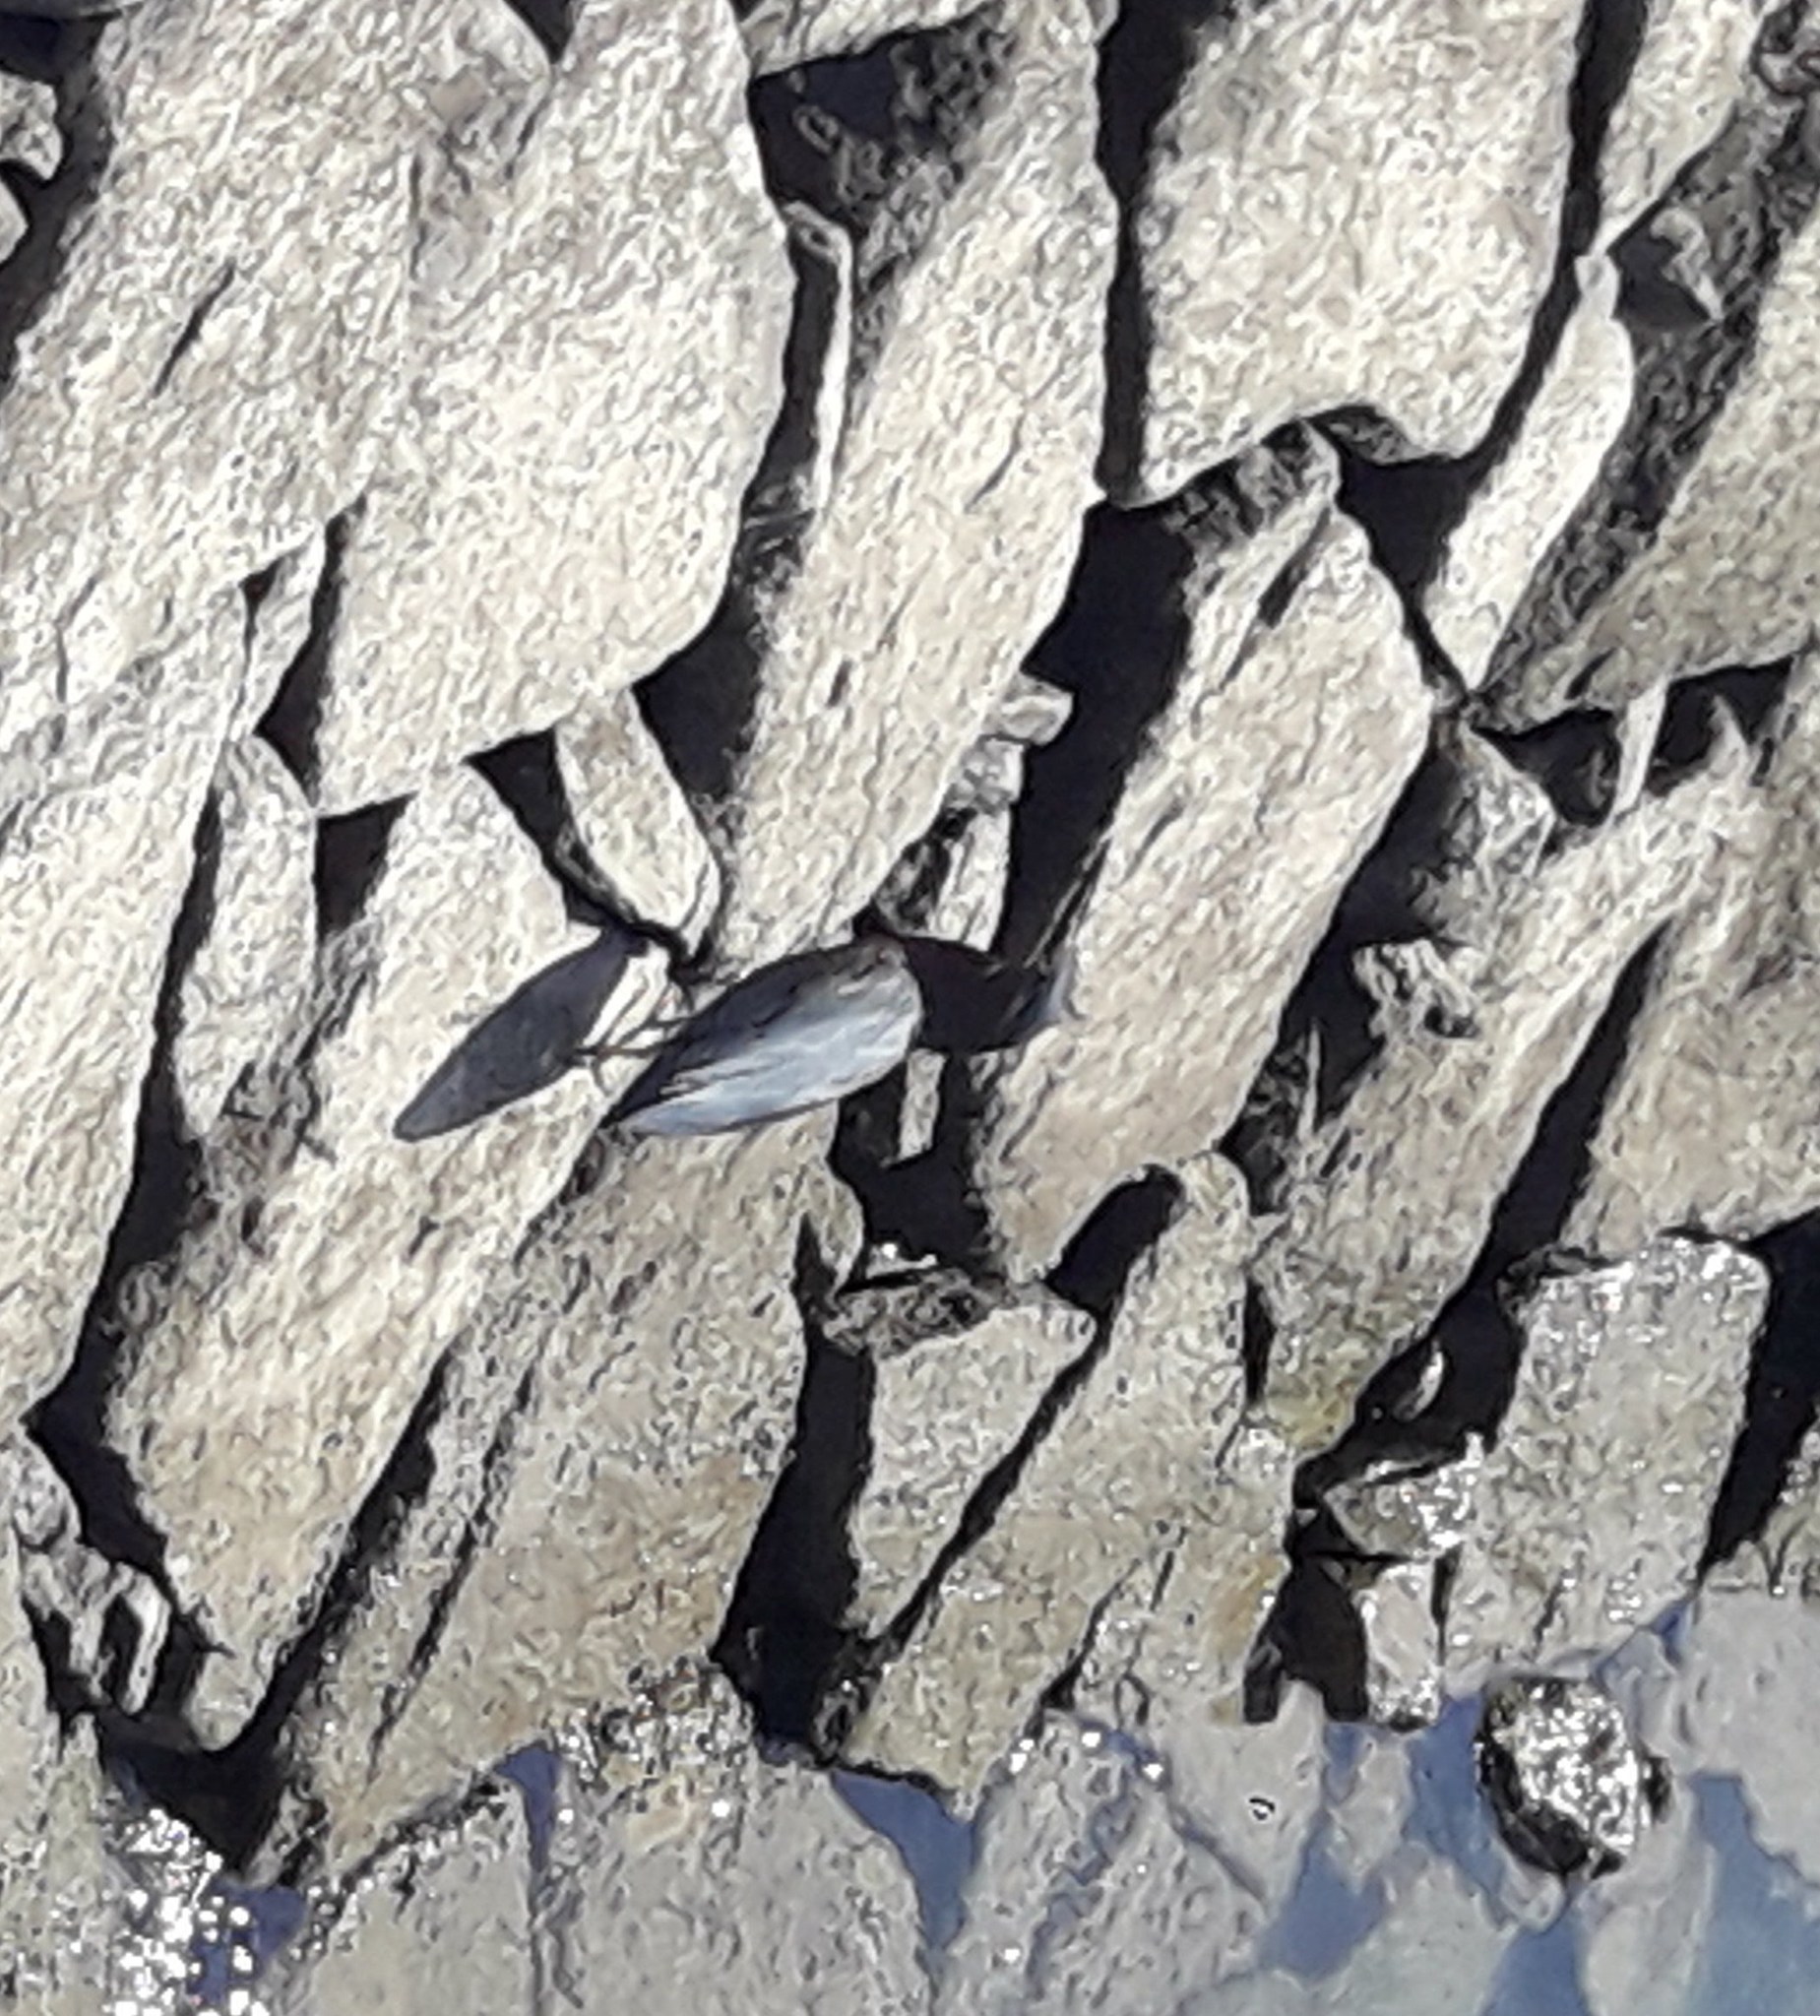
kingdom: Animalia
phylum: Chordata
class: Aves
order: Pelecaniformes
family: Ardeidae
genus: Butorides
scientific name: Butorides virescens
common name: Green heron
